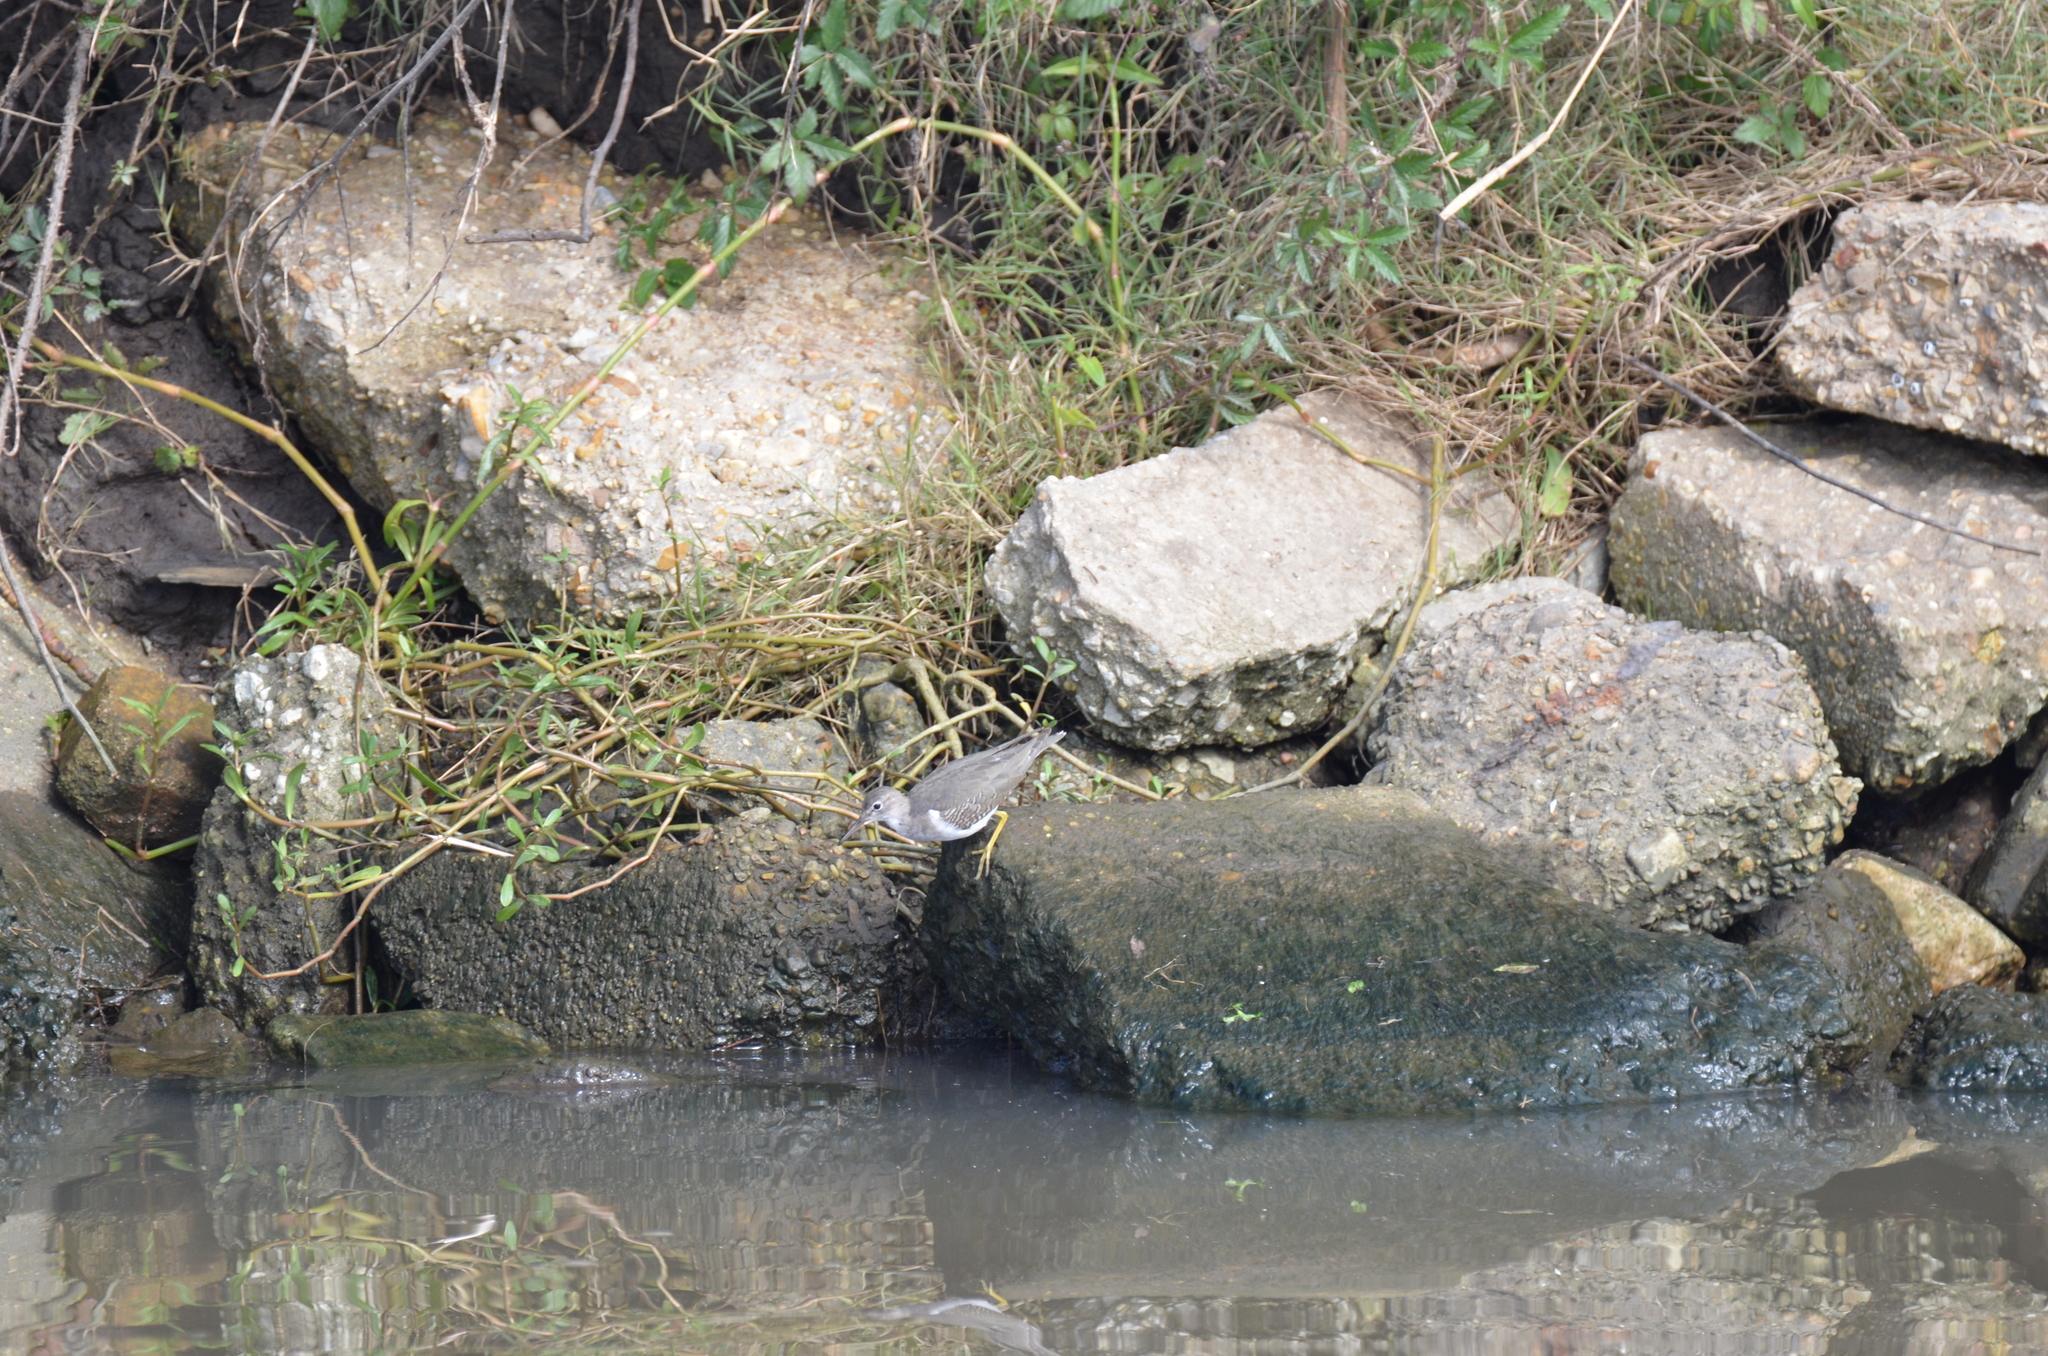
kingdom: Animalia
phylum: Chordata
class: Aves
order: Charadriiformes
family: Scolopacidae
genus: Actitis
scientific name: Actitis macularius
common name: Spotted sandpiper
